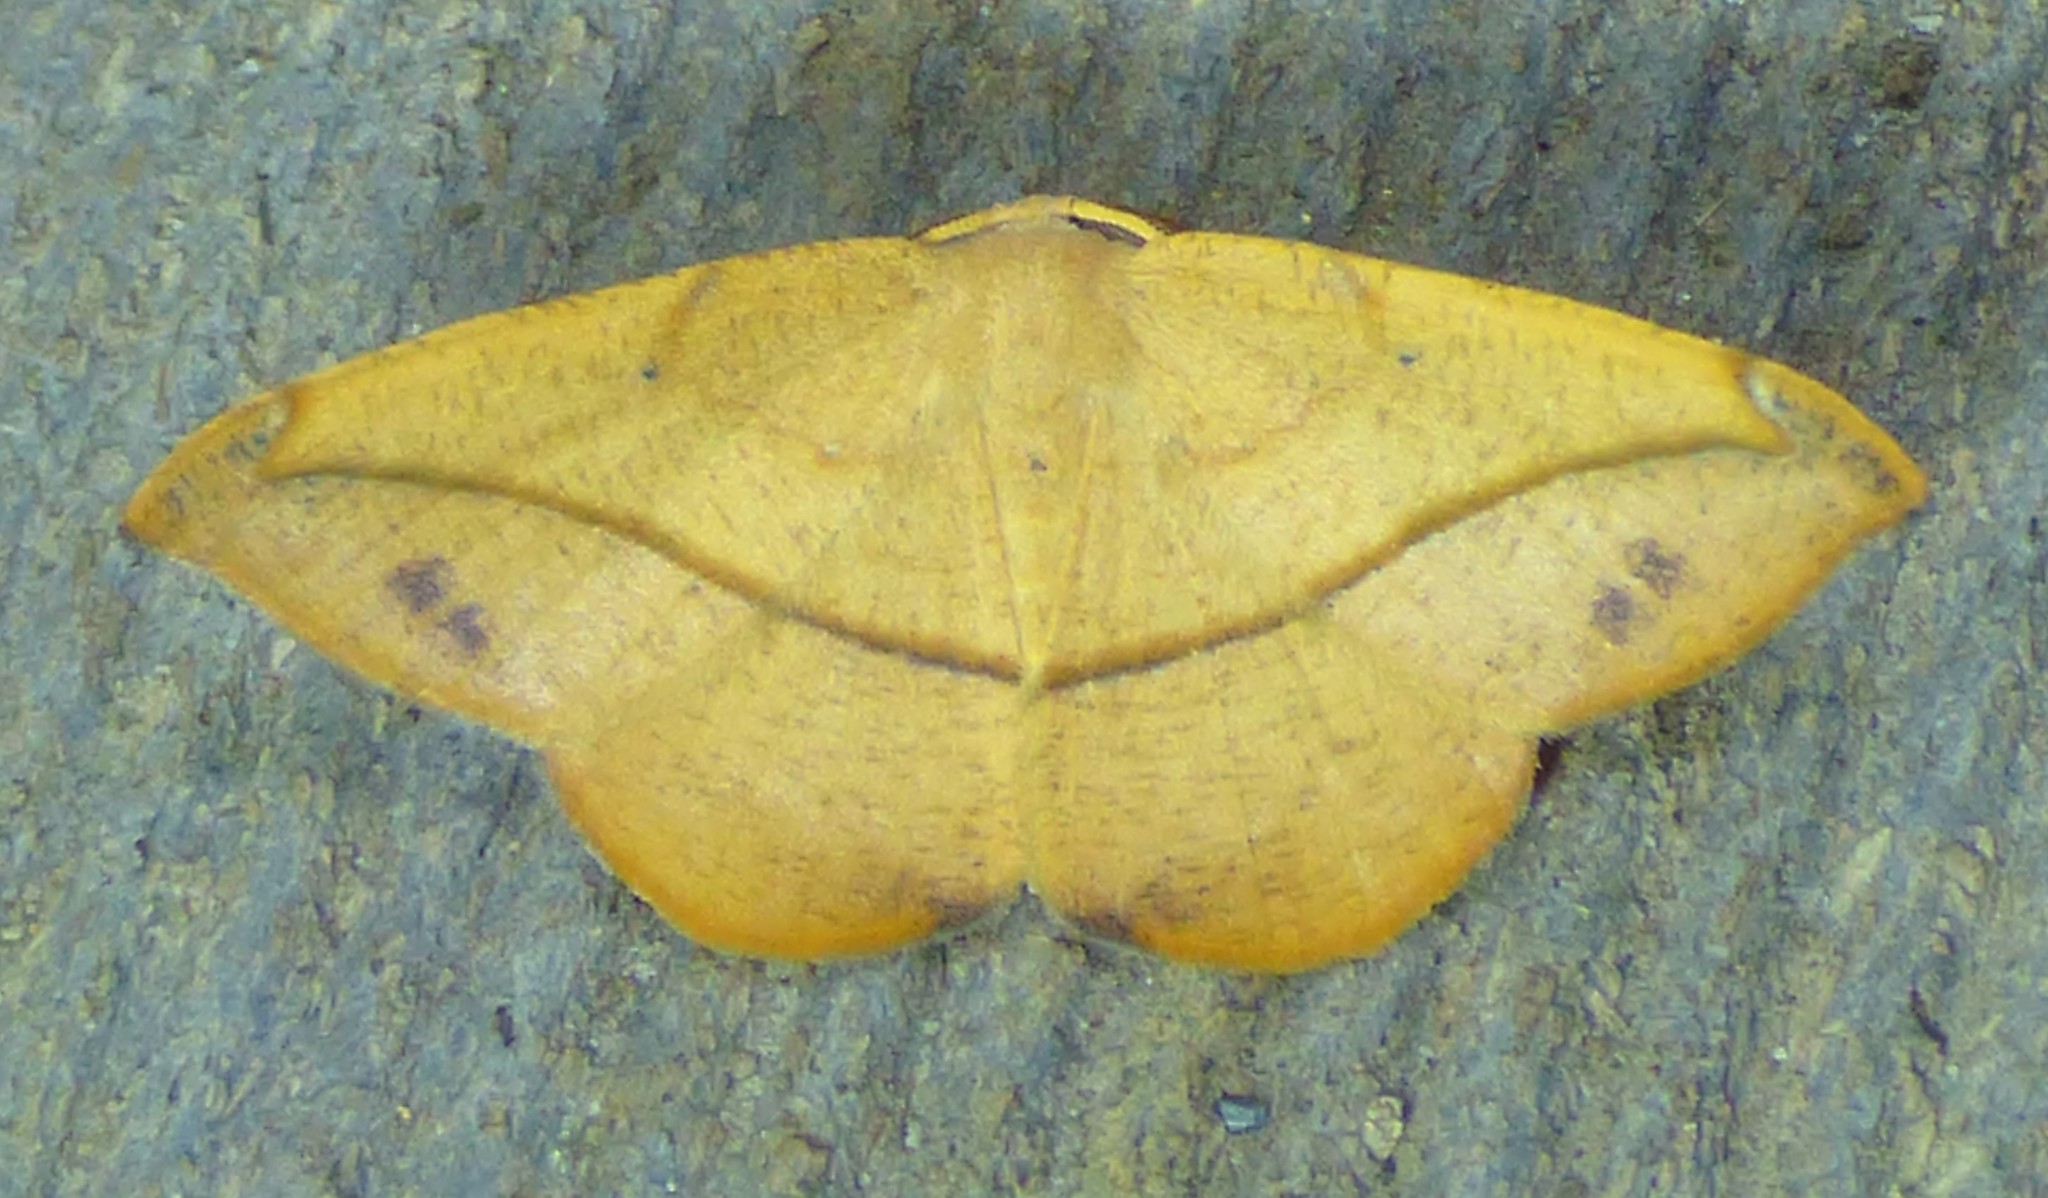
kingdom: Animalia
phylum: Arthropoda
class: Insecta
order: Lepidoptera
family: Geometridae
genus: Patalene
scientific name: Patalene olyzonaria
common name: Juniper geometer moth
